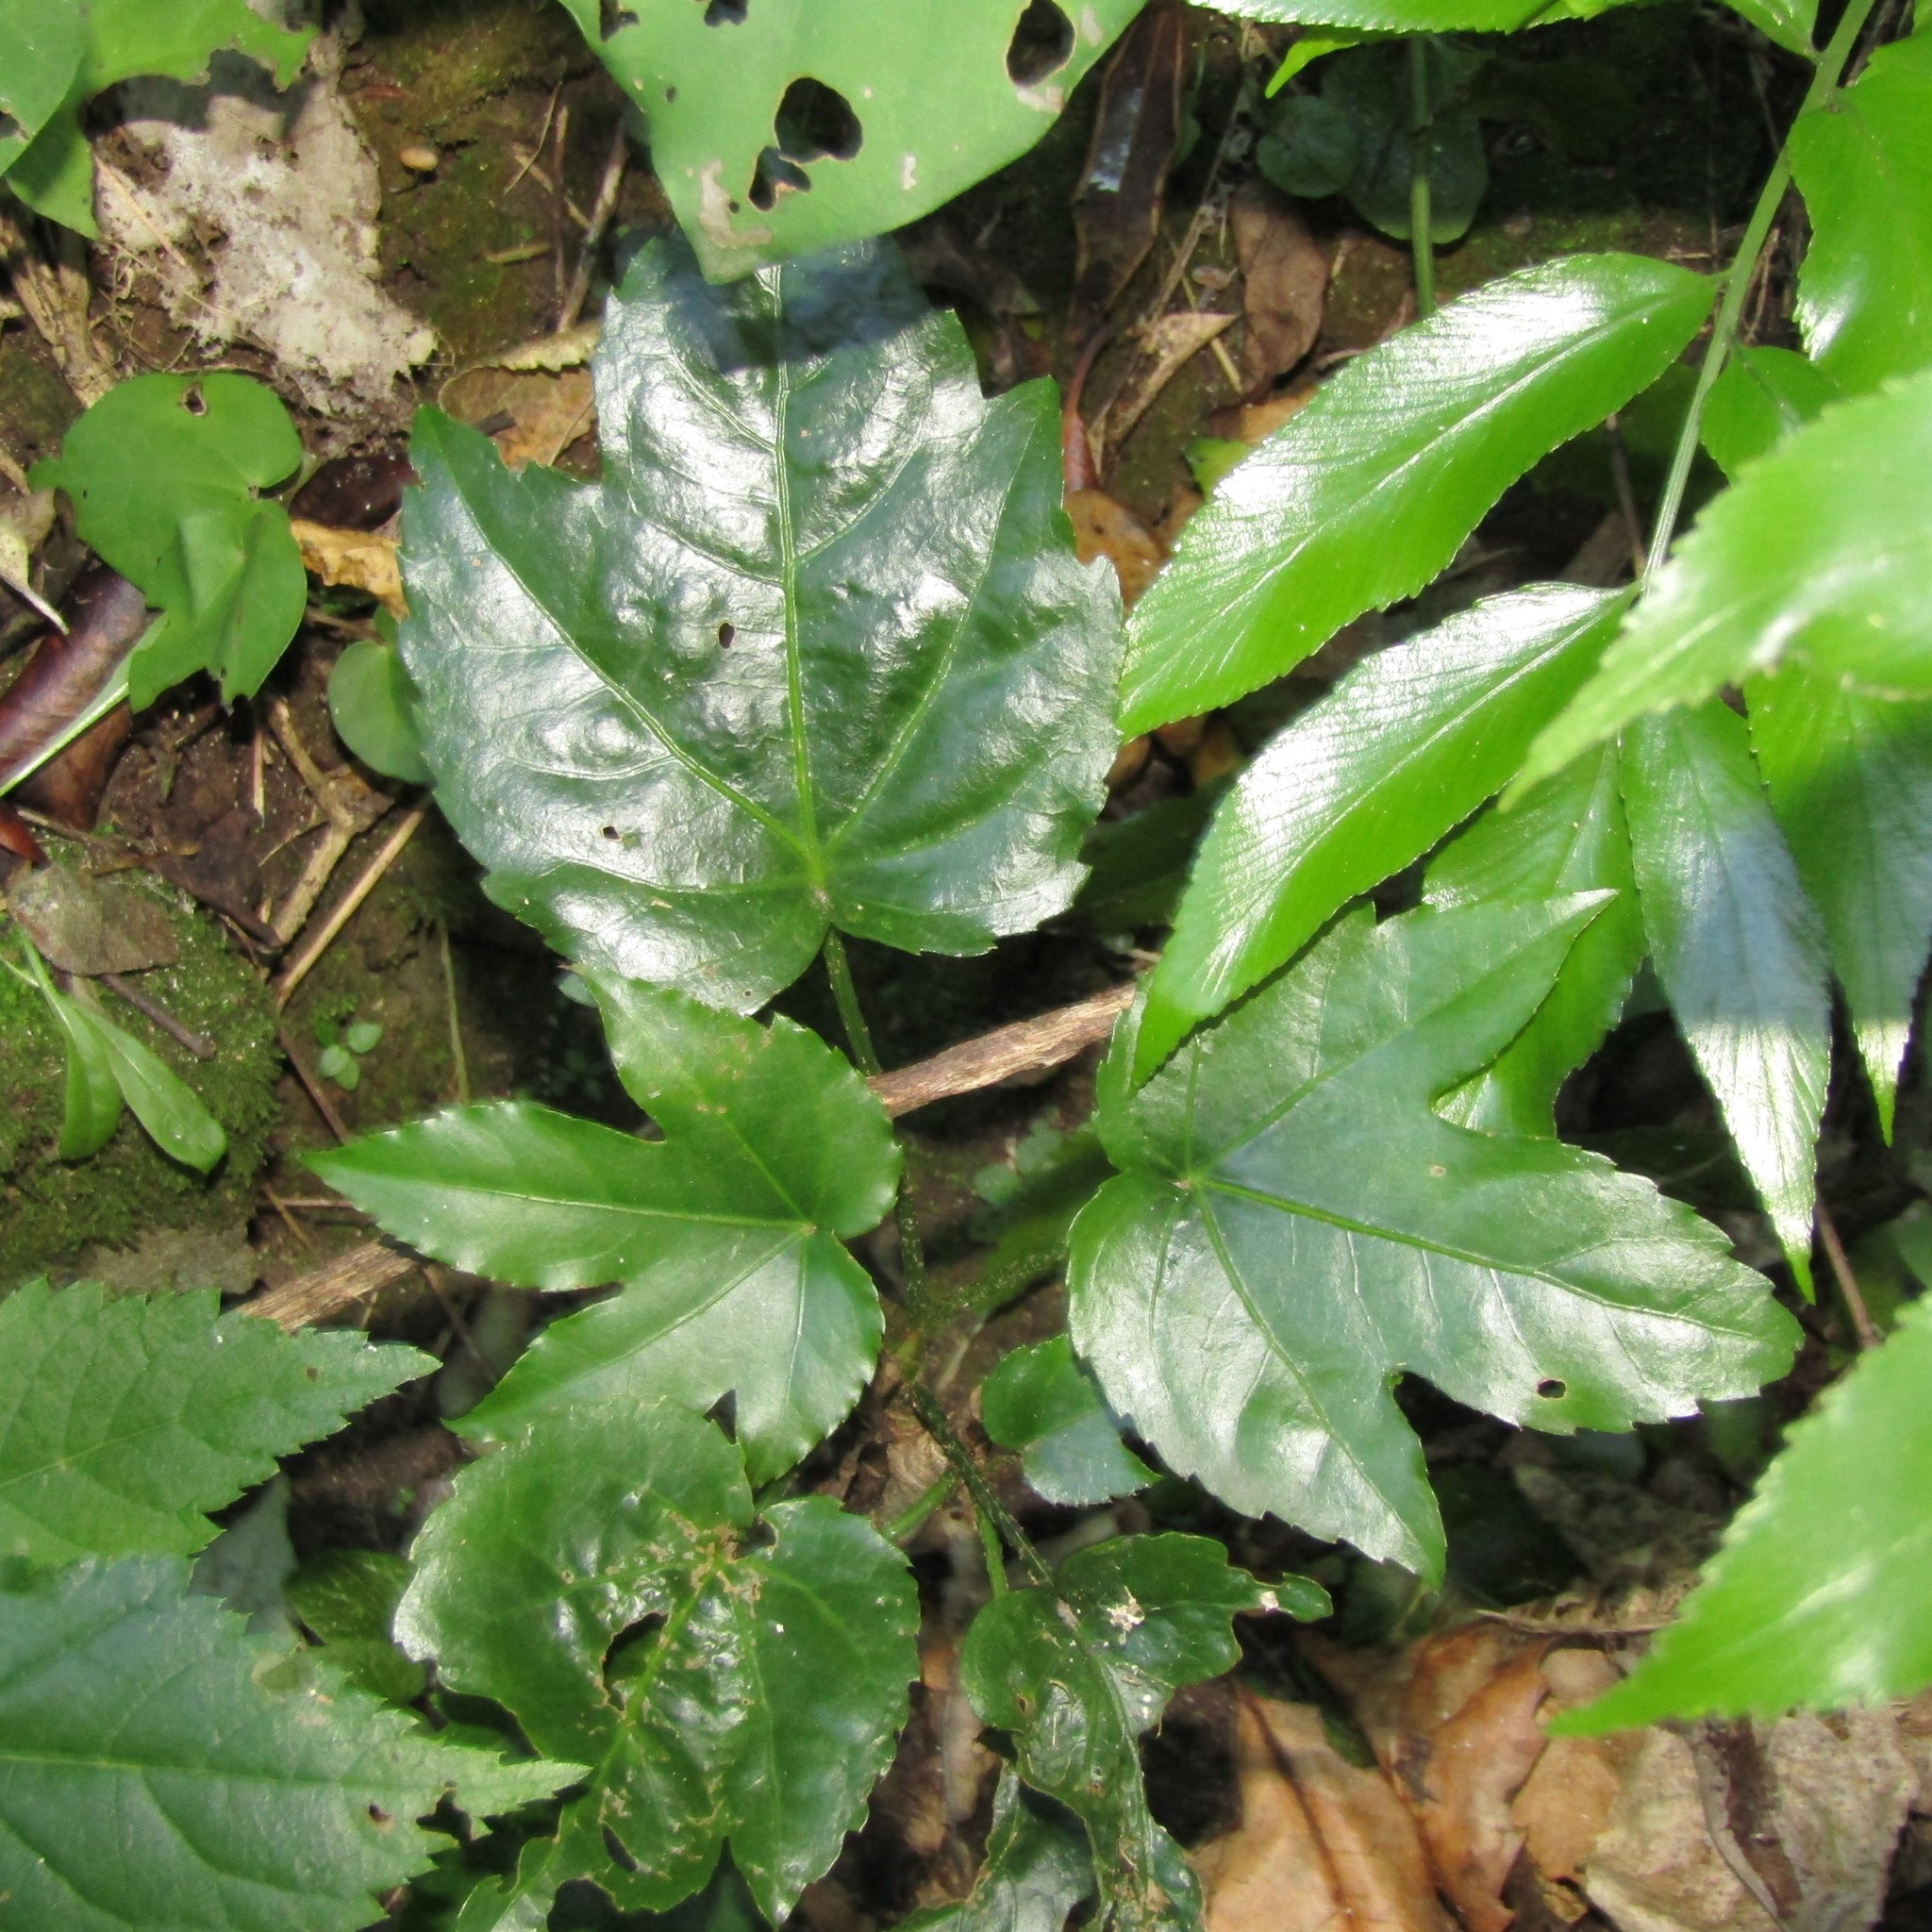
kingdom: Plantae
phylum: Tracheophyta
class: Magnoliopsida
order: Apiales
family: Araliaceae
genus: Fatsia
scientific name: Fatsia japonica
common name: Fatsia
